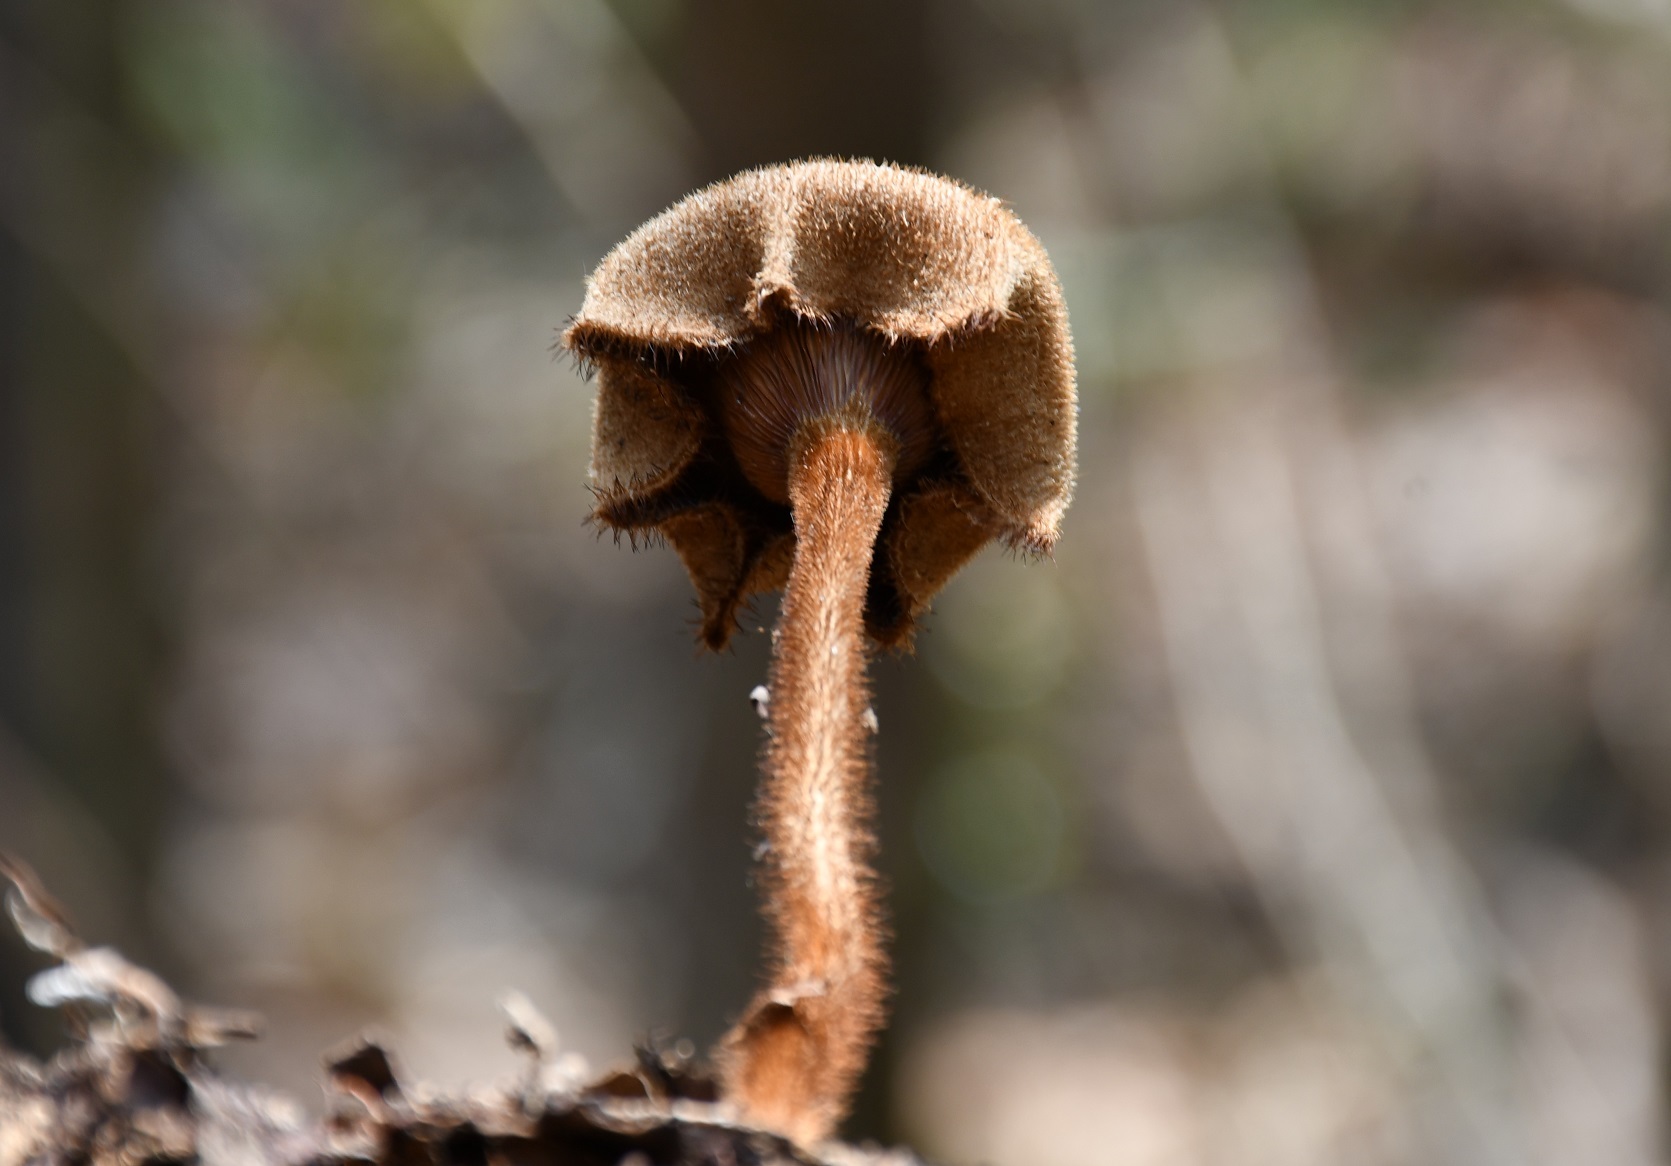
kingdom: Fungi
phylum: Basidiomycota
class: Agaricomycetes
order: Polyporales
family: Polyporaceae
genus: Lentinus
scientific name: Lentinus velutinus
